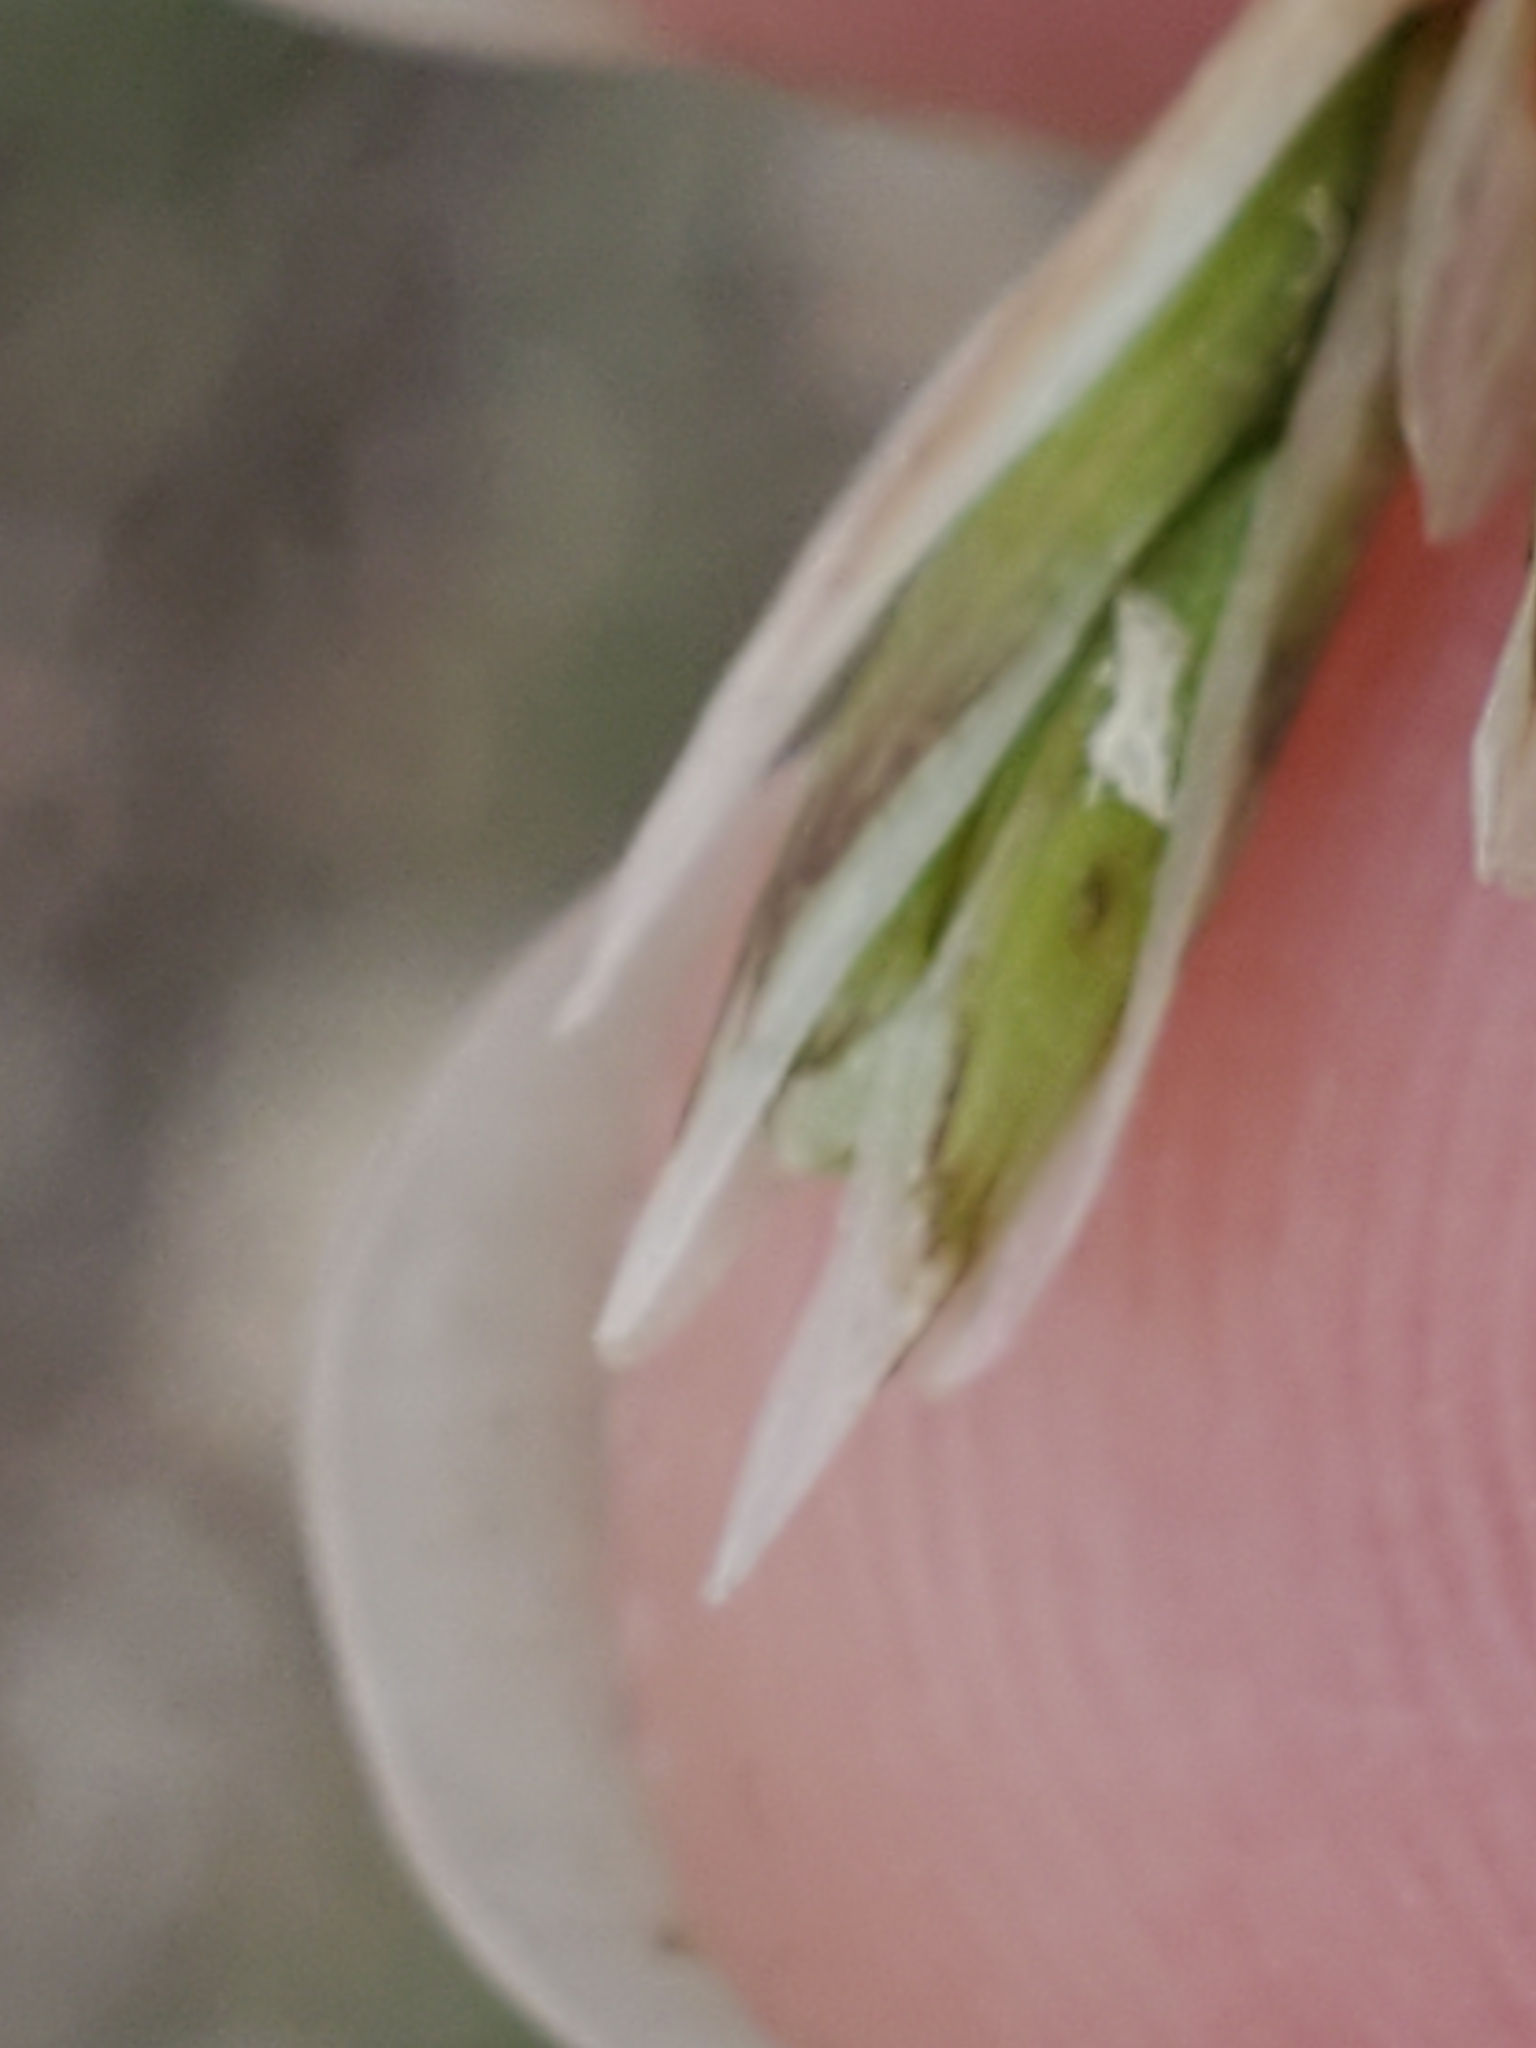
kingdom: Plantae
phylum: Tracheophyta
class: Liliopsida
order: Poales
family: Poaceae
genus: Melica
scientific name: Melica nitens
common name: Three-flower melic
